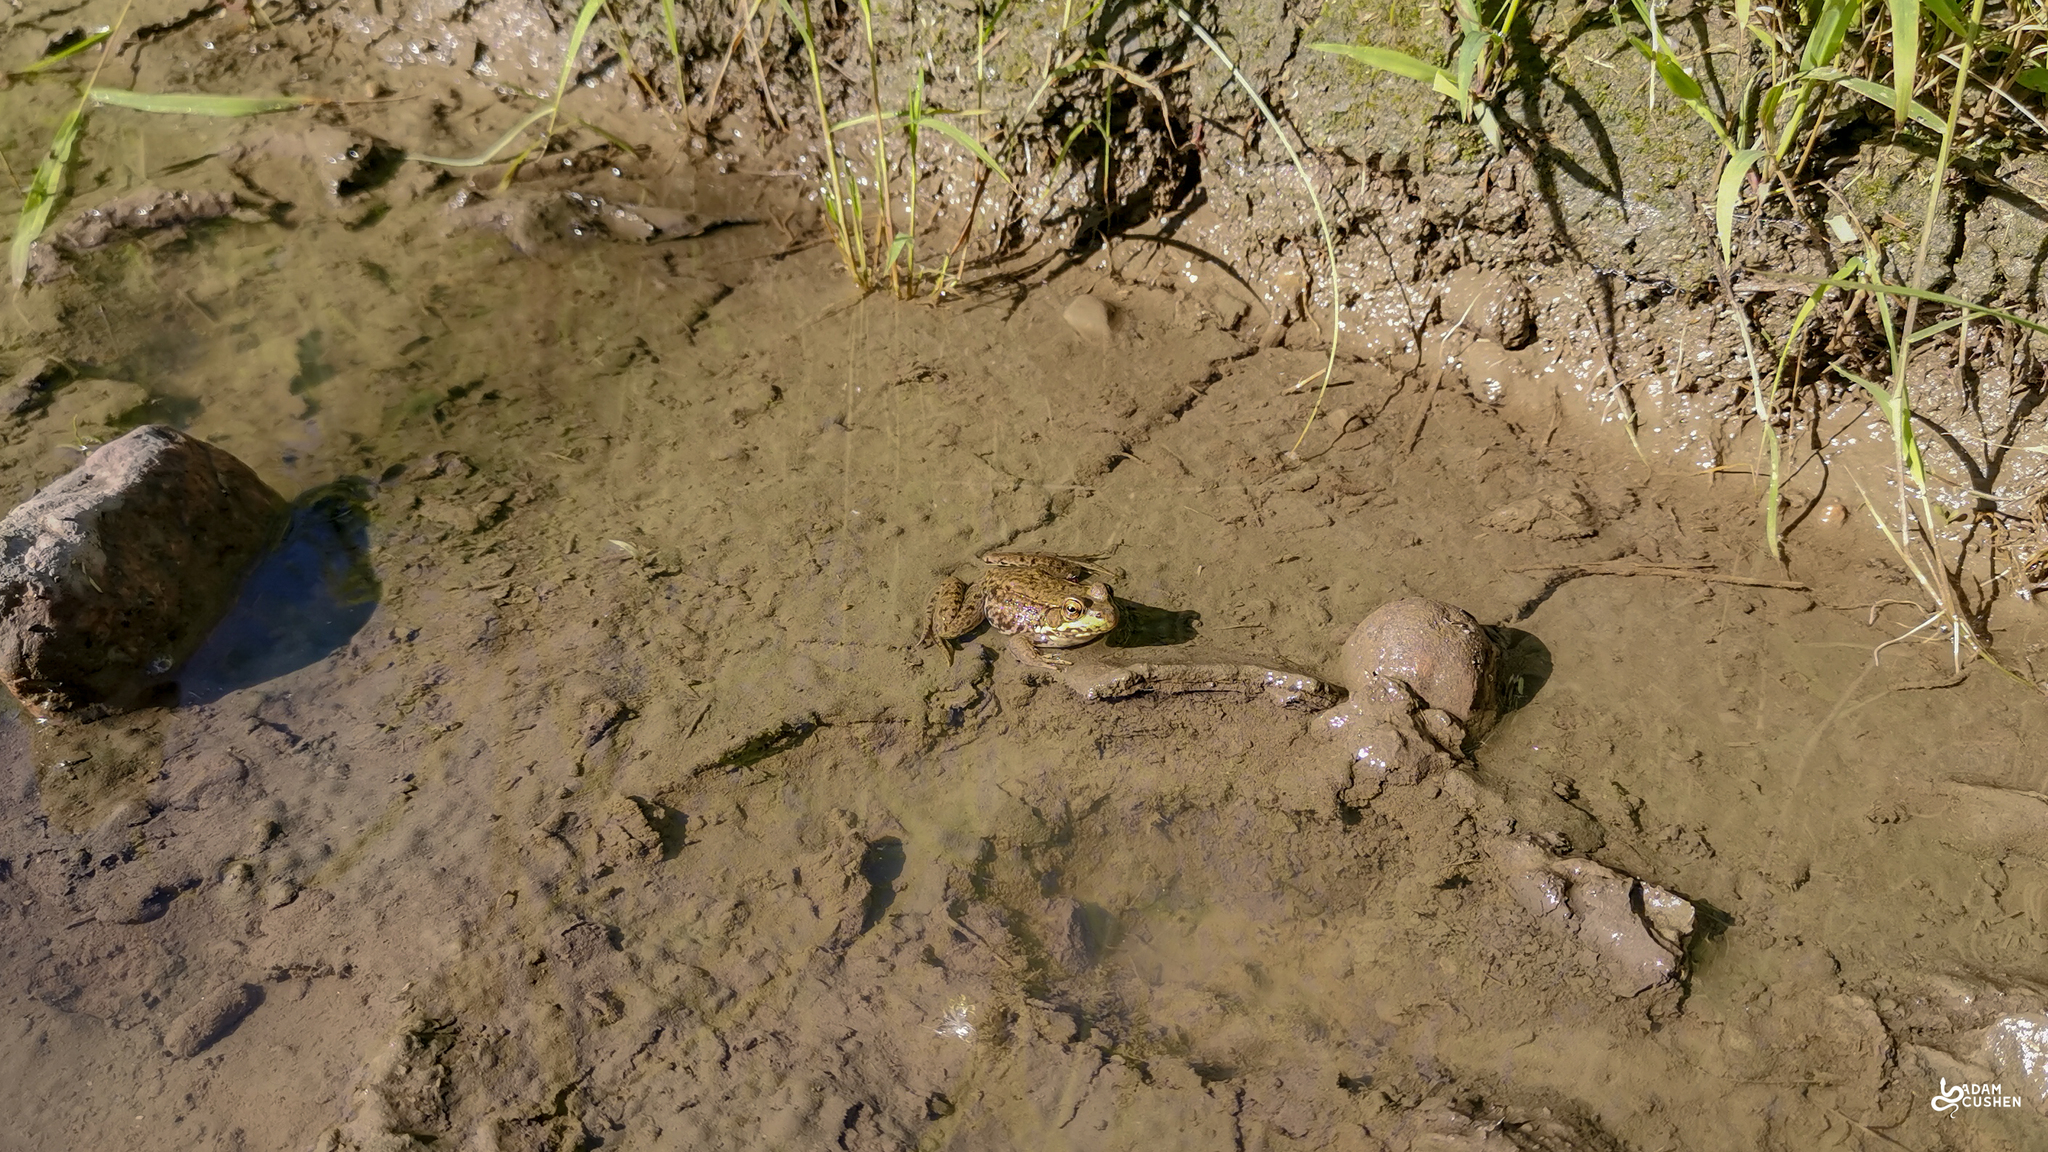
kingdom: Animalia
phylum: Chordata
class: Amphibia
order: Anura
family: Ranidae
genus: Lithobates
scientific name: Lithobates clamitans
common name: Green frog
